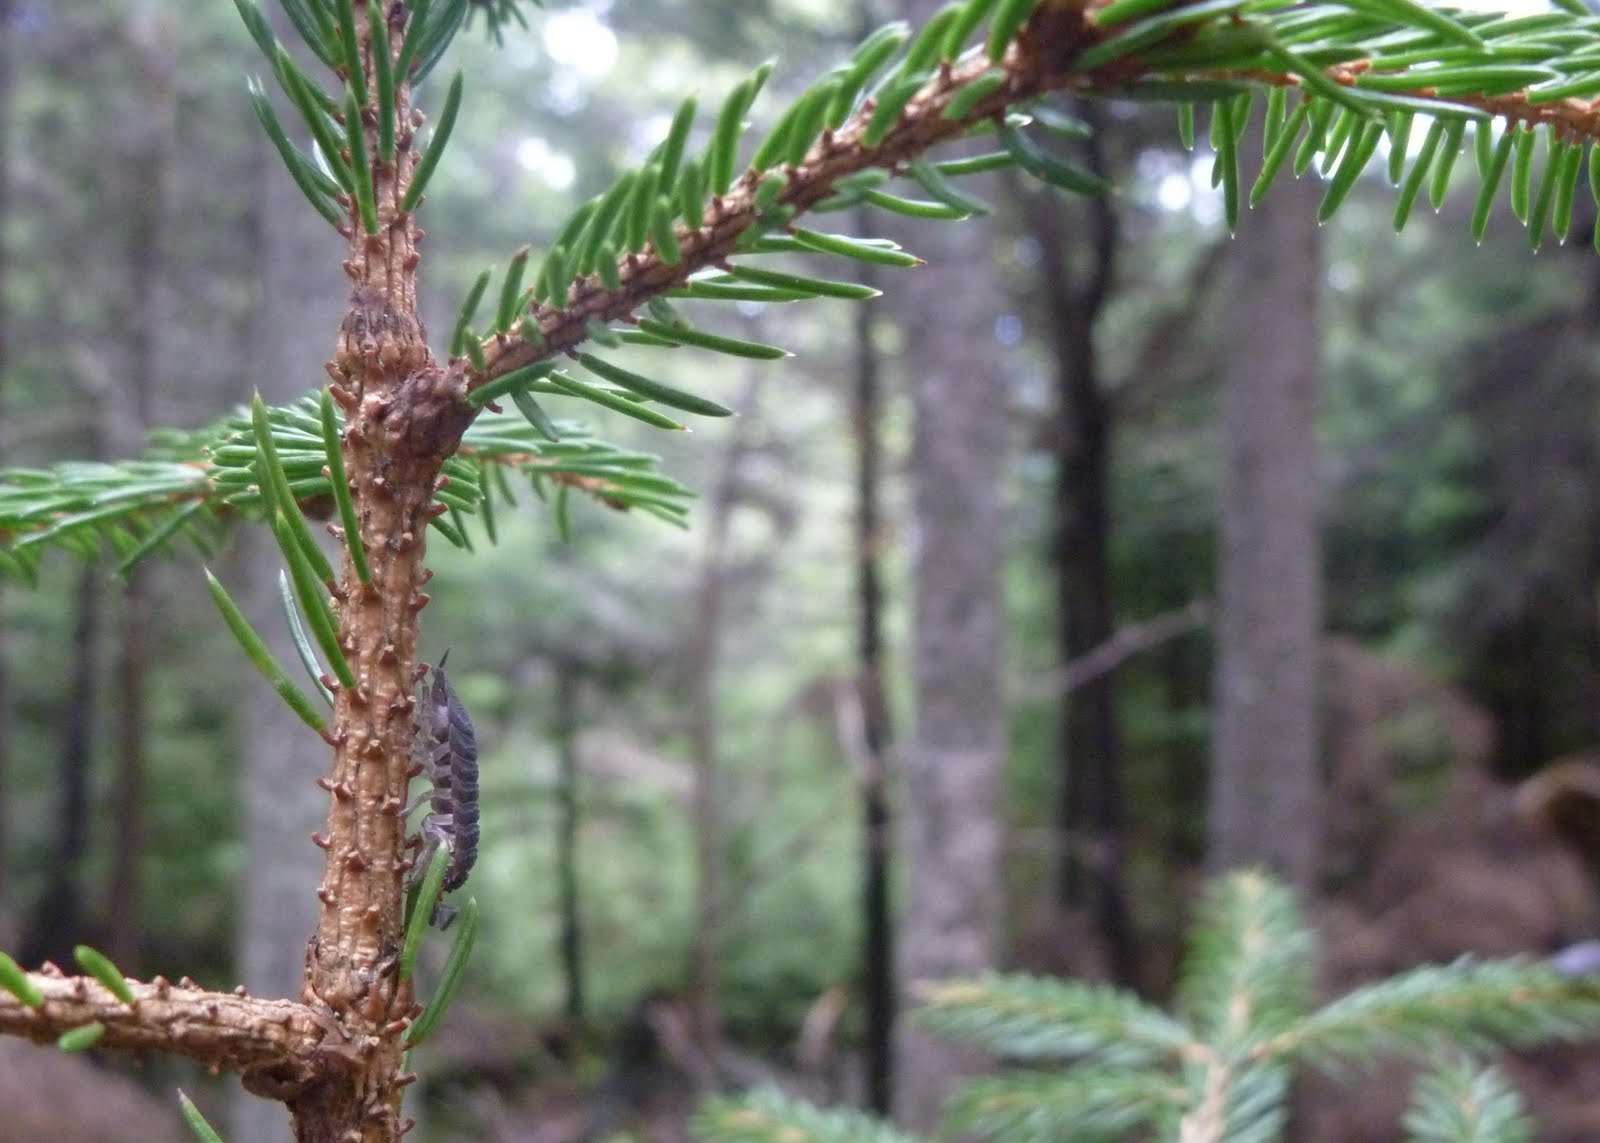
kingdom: Animalia
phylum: Arthropoda
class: Malacostraca
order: Isopoda
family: Porcellionidae
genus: Porcellio
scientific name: Porcellio scaber
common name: Common rough woodlouse
